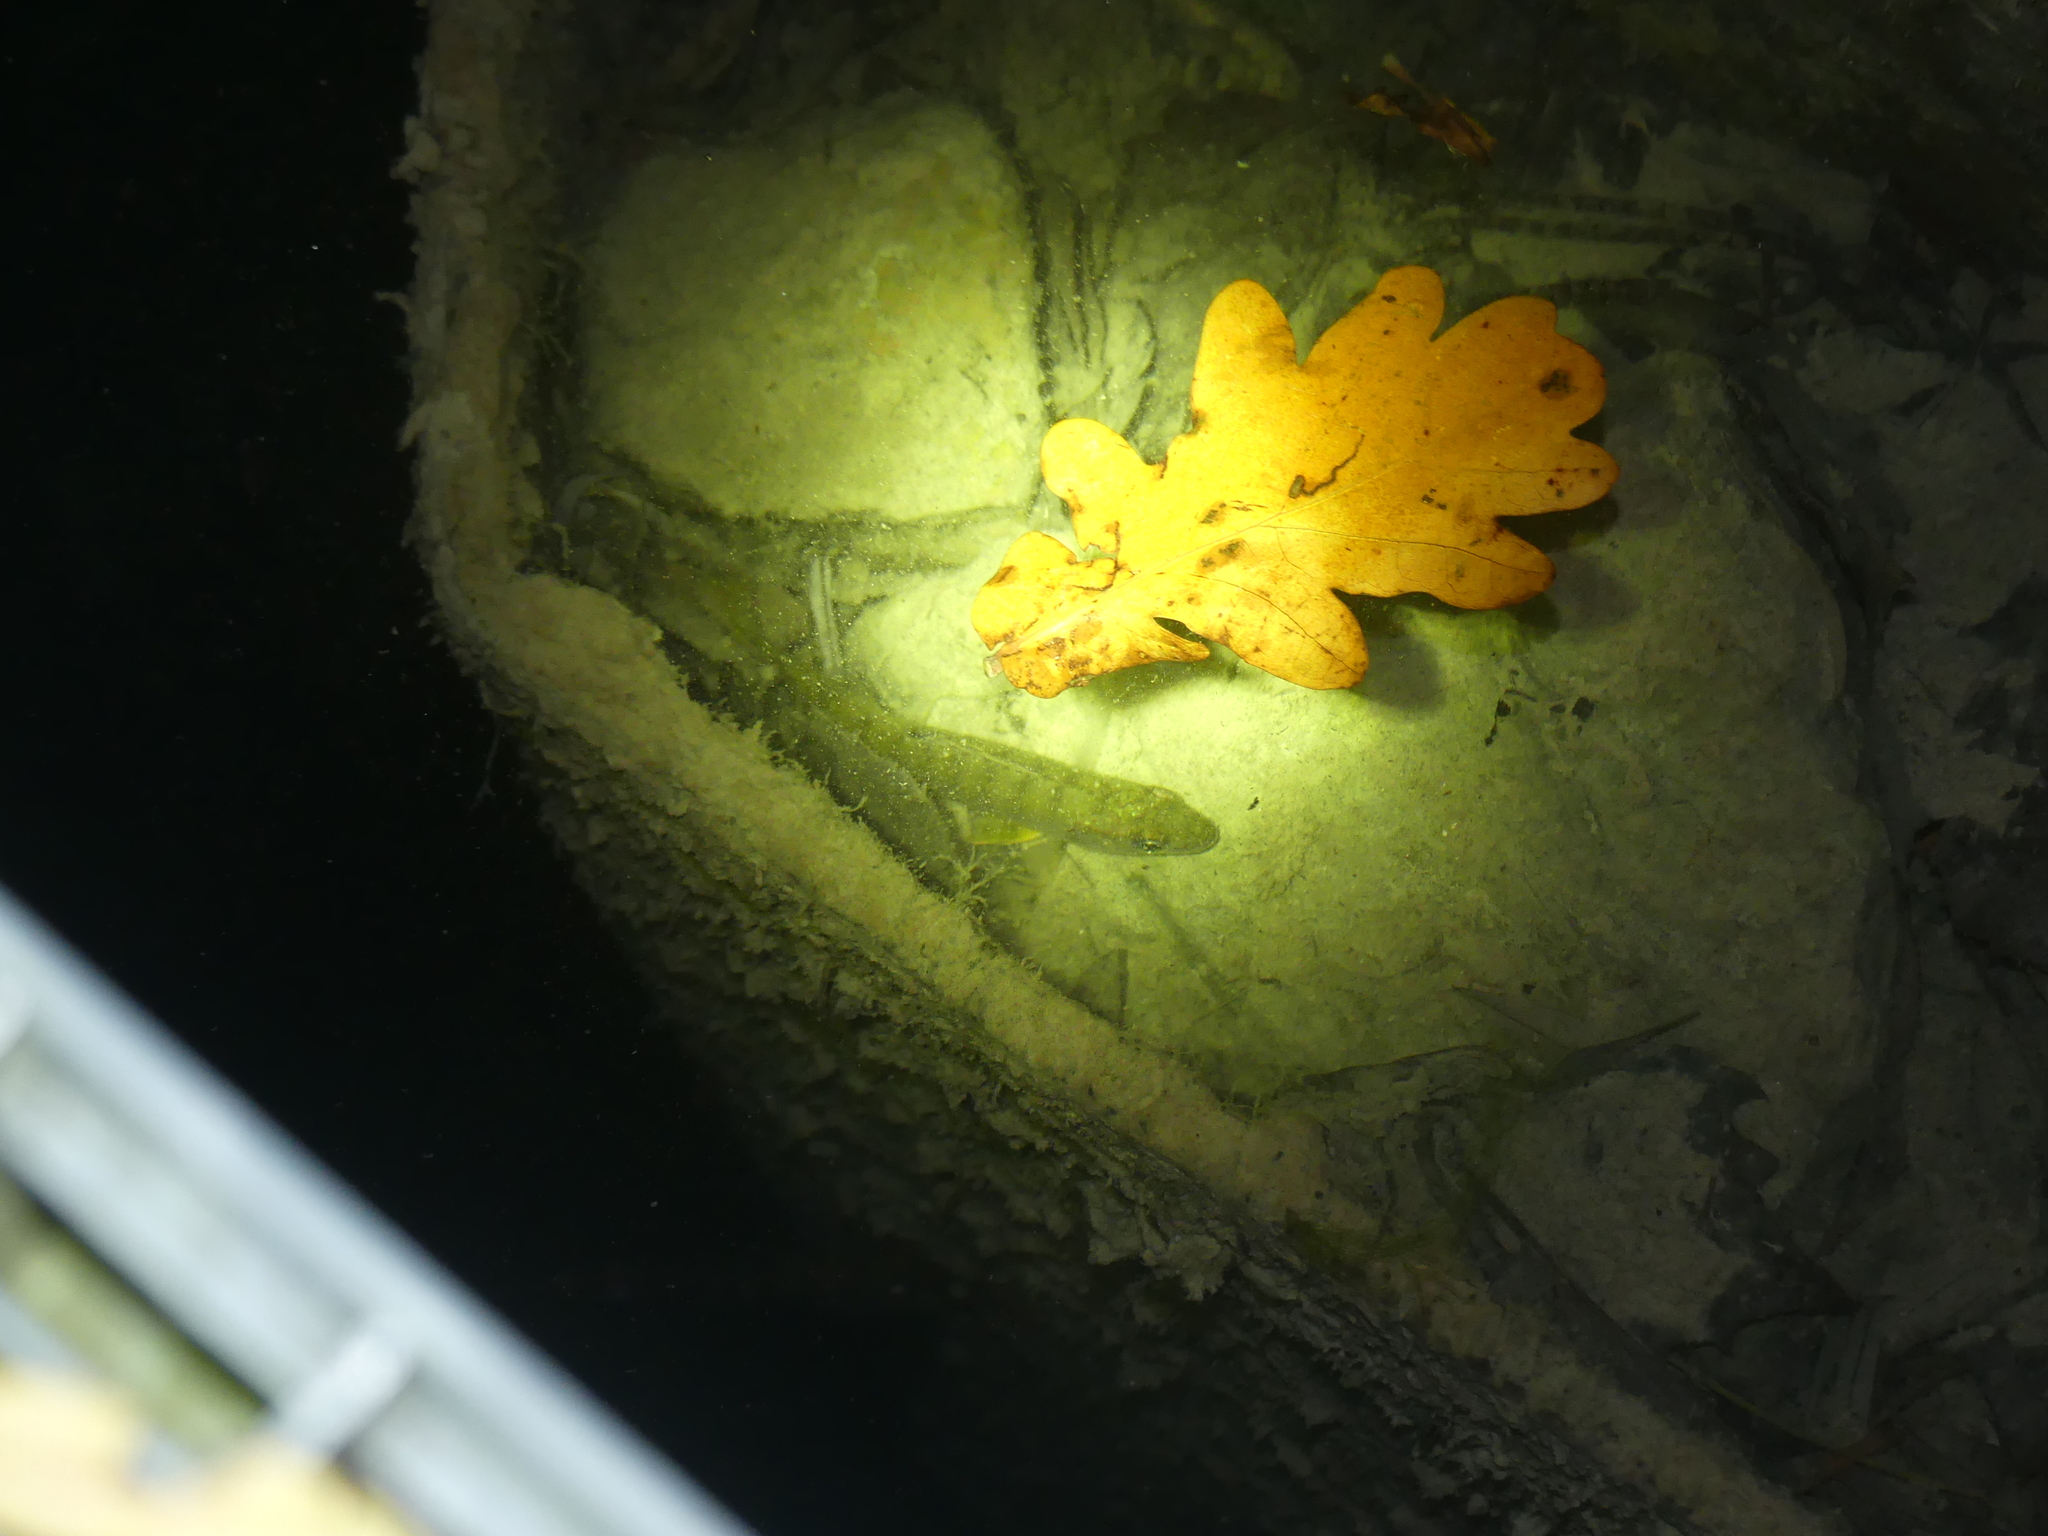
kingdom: Animalia
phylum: Chordata
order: Perciformes
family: Percidae
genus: Perca
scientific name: Perca fluviatilis
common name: Perch
